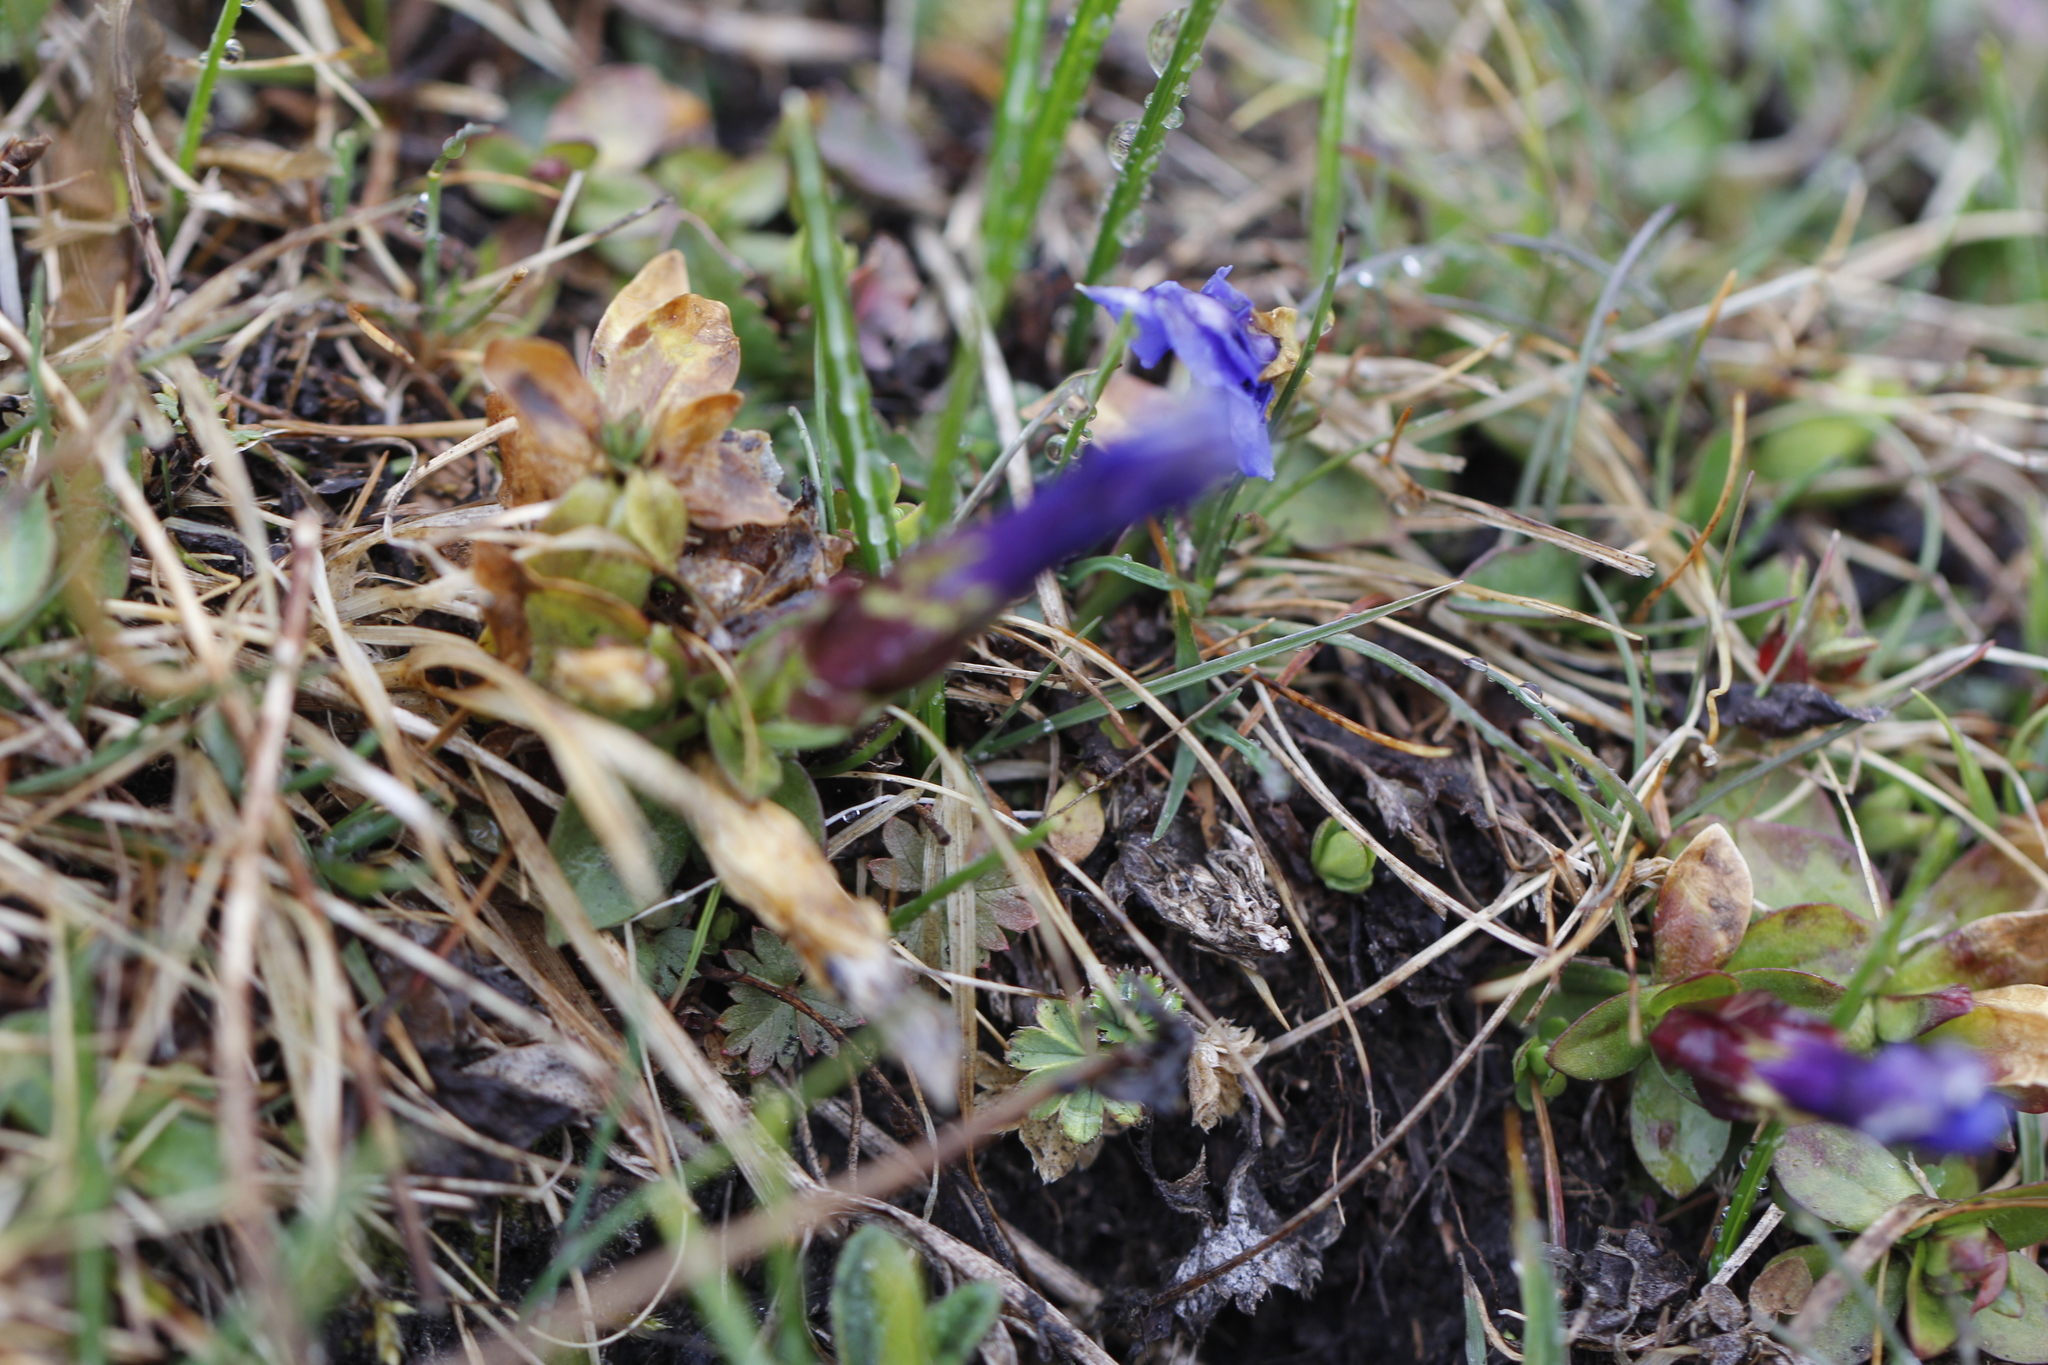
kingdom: Plantae
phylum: Tracheophyta
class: Magnoliopsida
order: Gentianales
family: Gentianaceae
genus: Gentiana
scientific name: Gentiana verna
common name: Spring gentian
